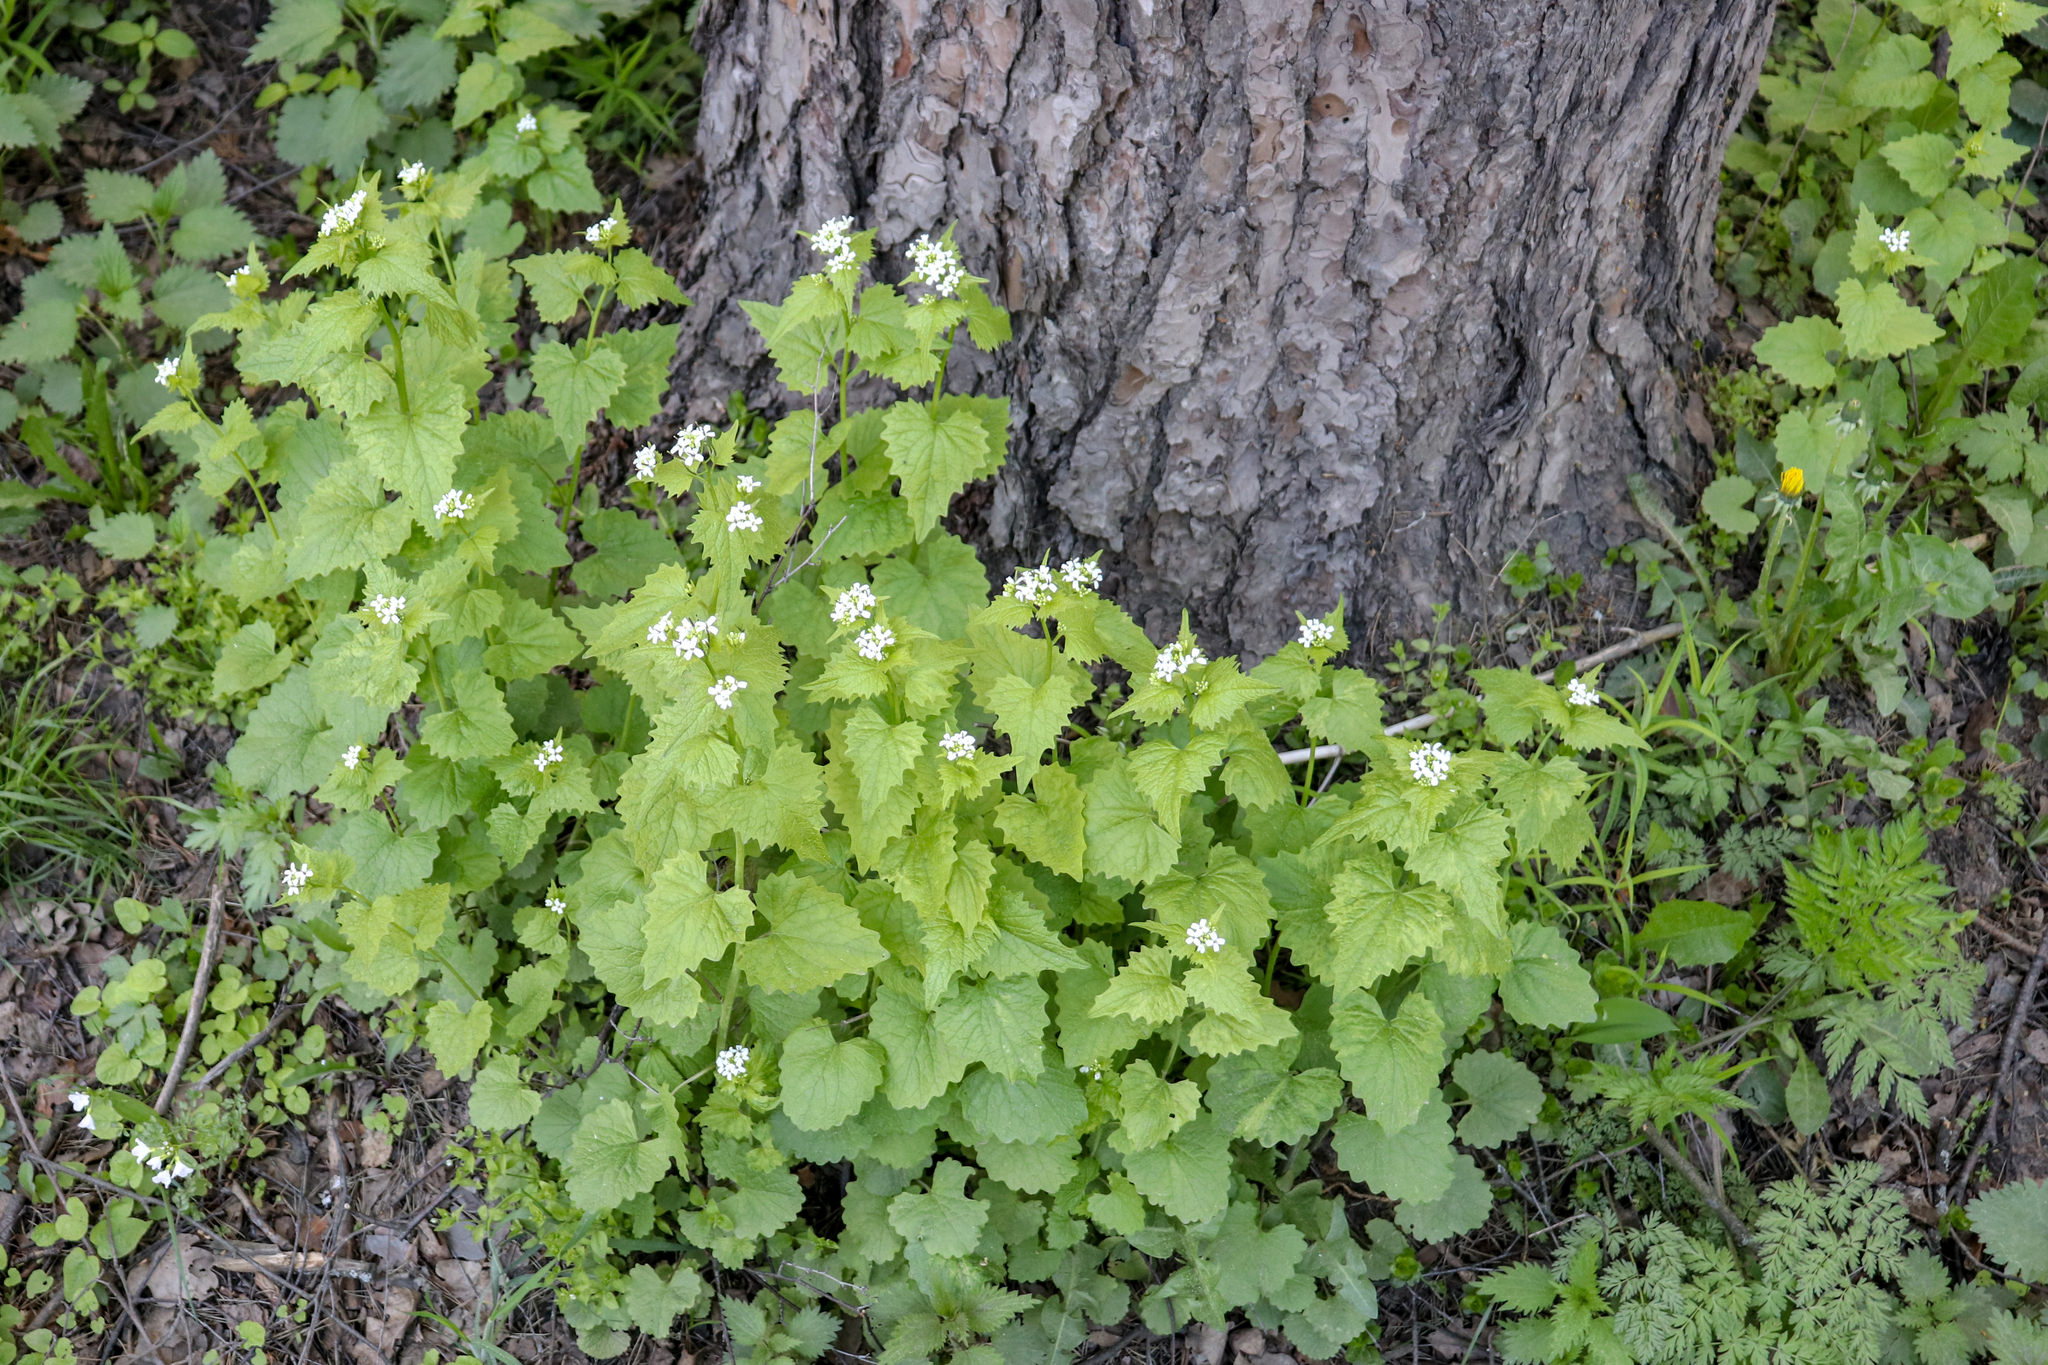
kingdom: Plantae
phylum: Tracheophyta
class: Magnoliopsida
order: Brassicales
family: Brassicaceae
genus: Alliaria
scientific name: Alliaria petiolata
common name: Garlic mustard
